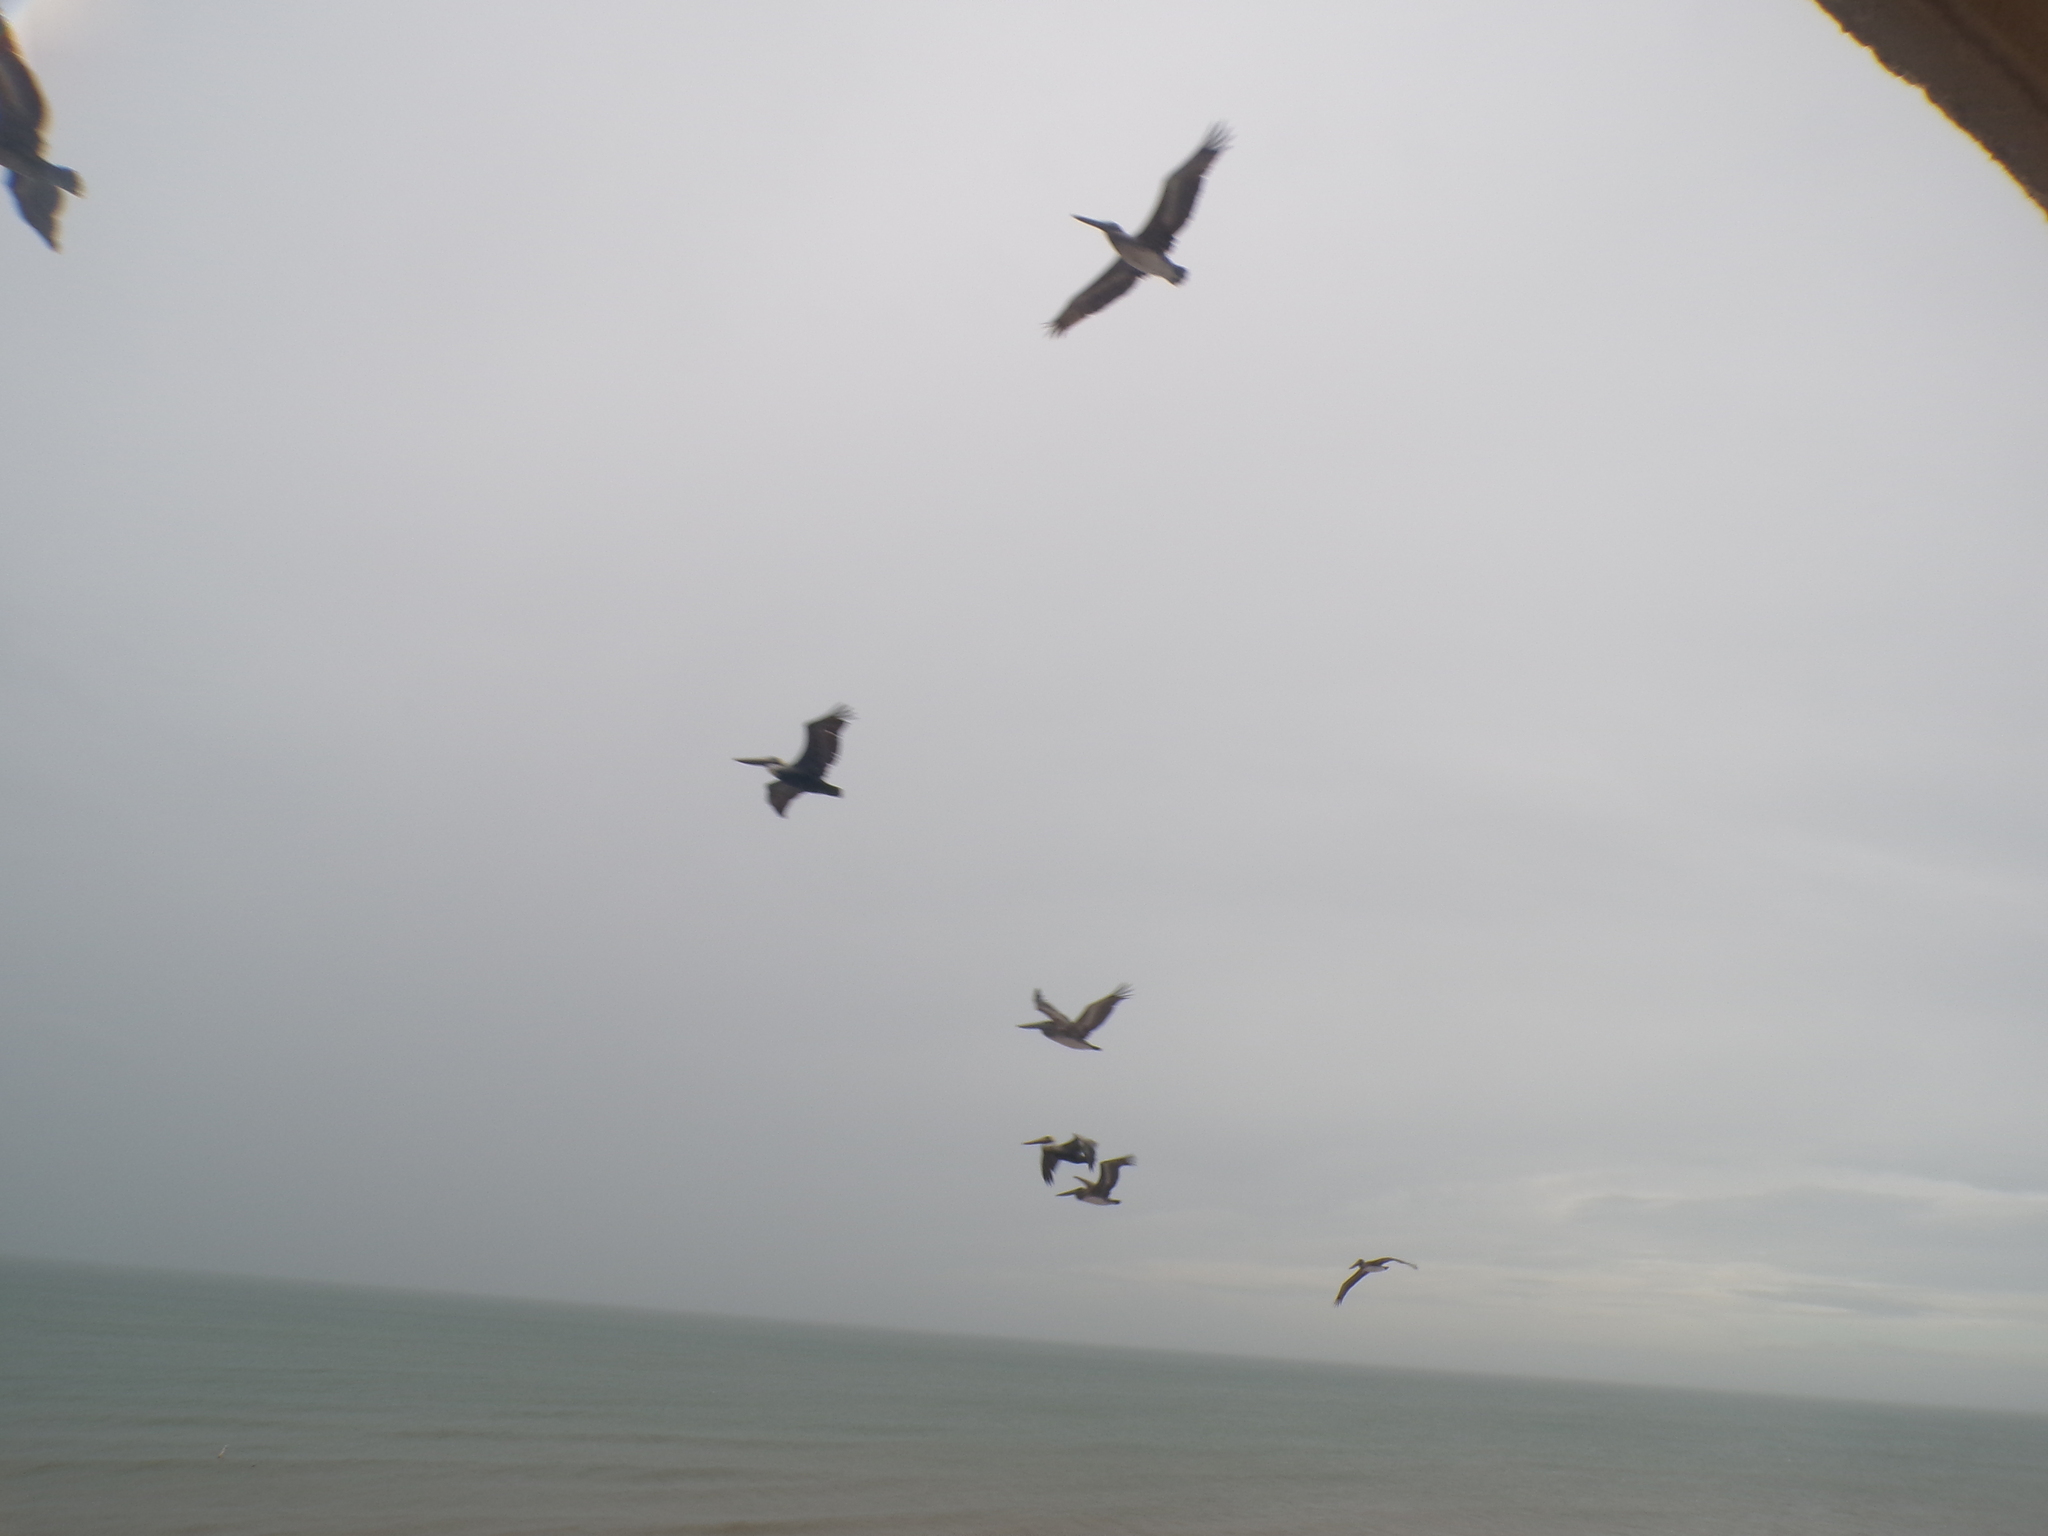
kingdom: Animalia
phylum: Chordata
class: Aves
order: Pelecaniformes
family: Pelecanidae
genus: Pelecanus
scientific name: Pelecanus occidentalis
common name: Brown pelican
